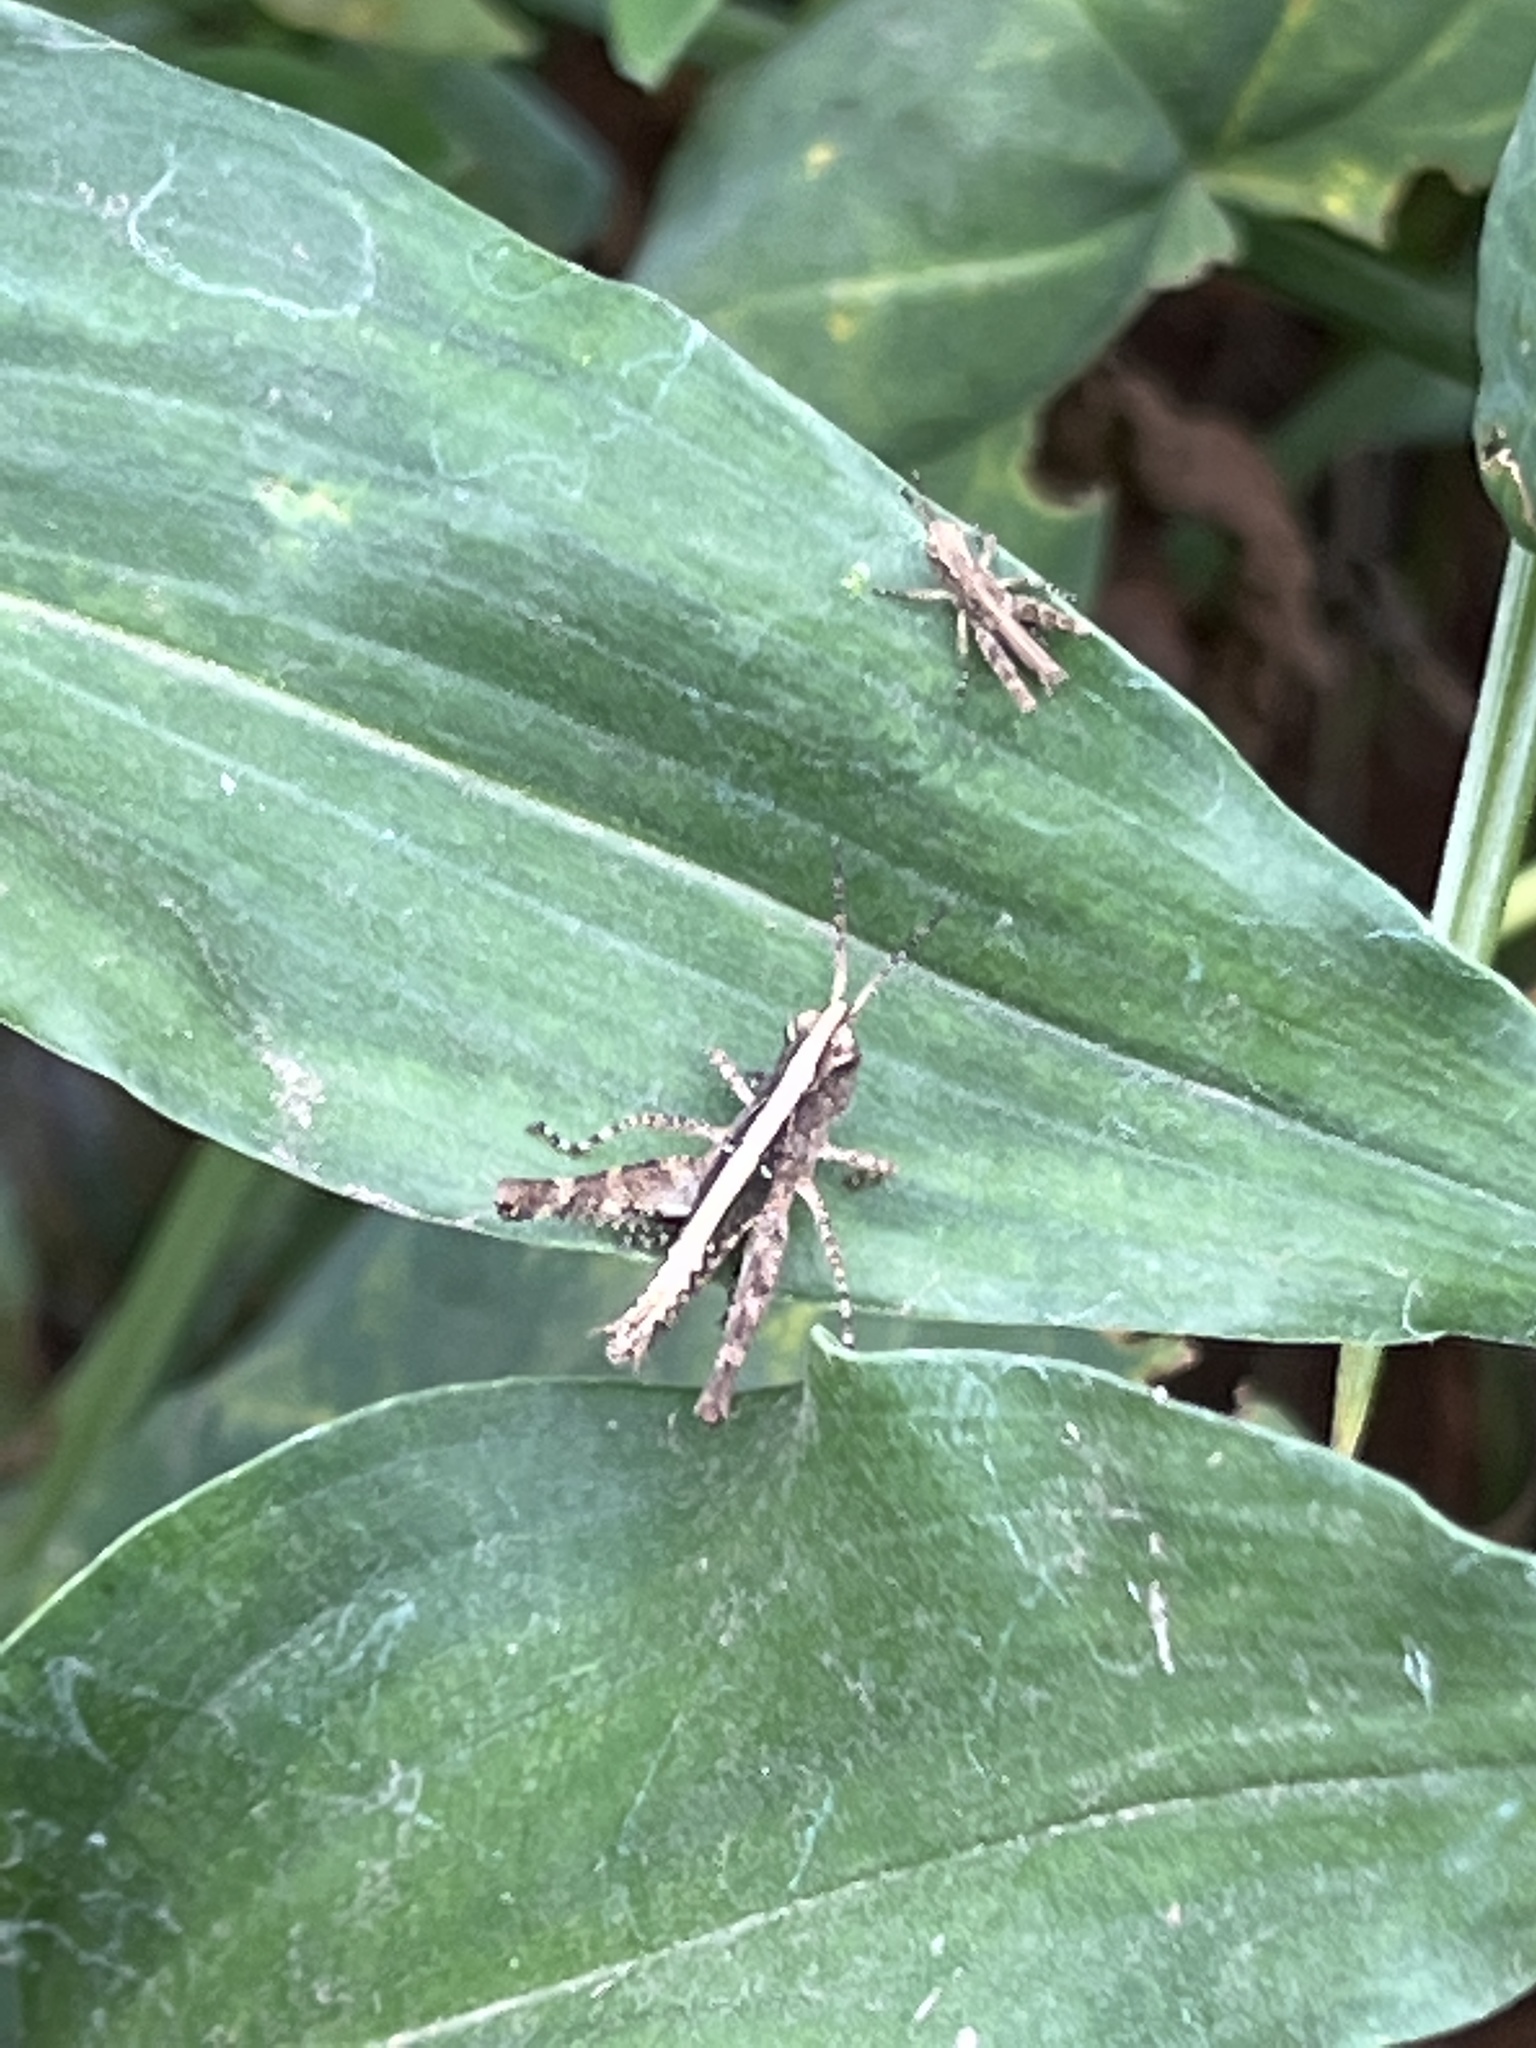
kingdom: Animalia
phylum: Arthropoda
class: Insecta
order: Orthoptera
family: Acrididae
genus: Gymnobothrus
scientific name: Gymnobothrus flexuosus
